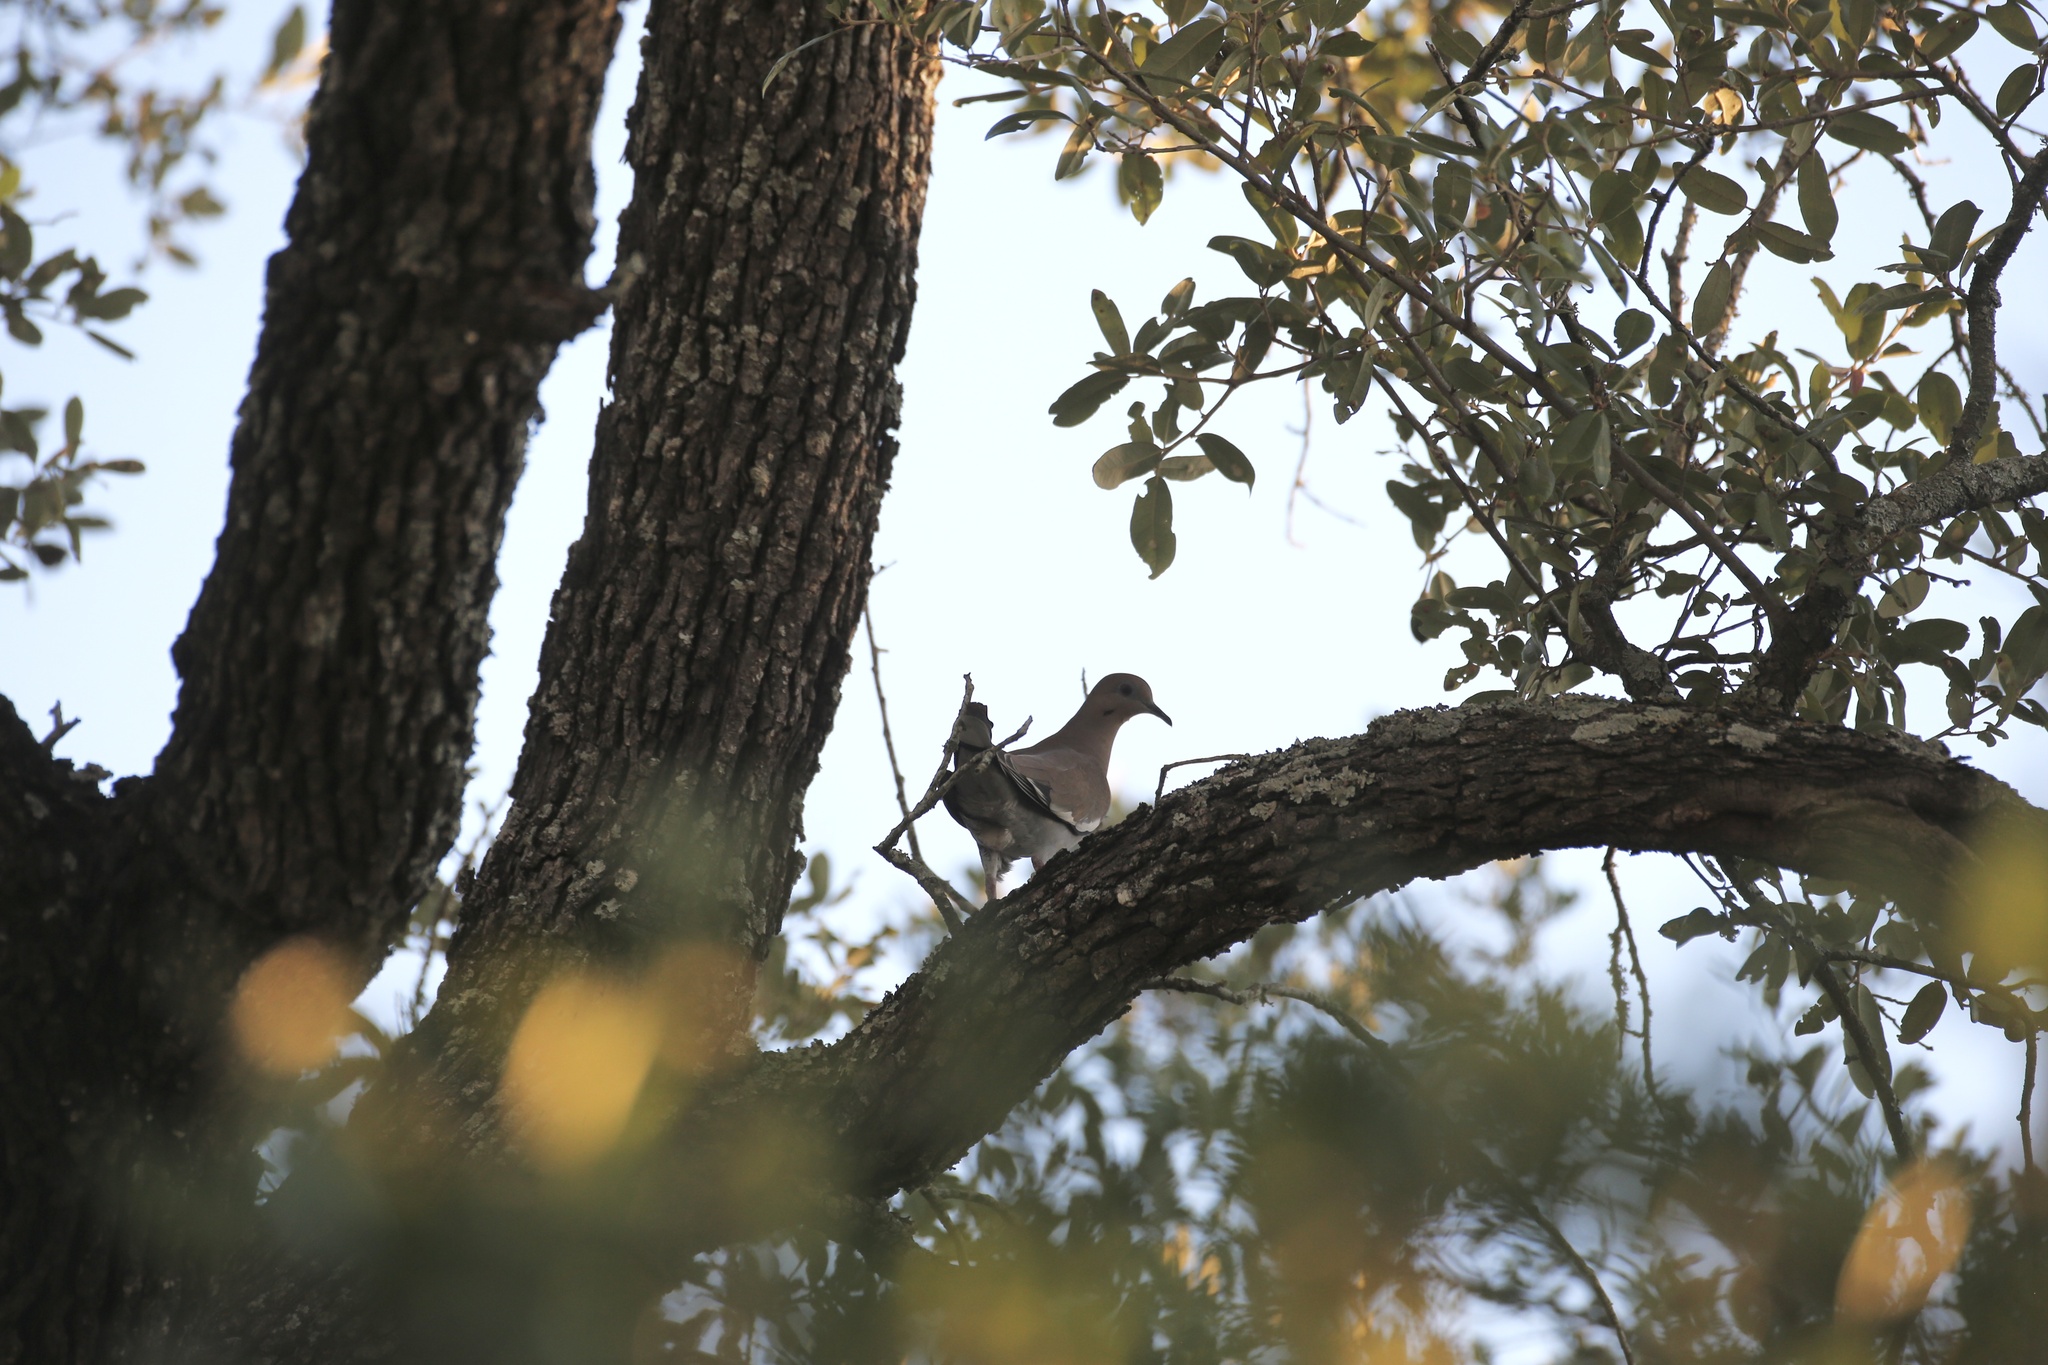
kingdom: Animalia
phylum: Chordata
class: Aves
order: Columbiformes
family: Columbidae
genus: Zenaida
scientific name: Zenaida asiatica
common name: White-winged dove
